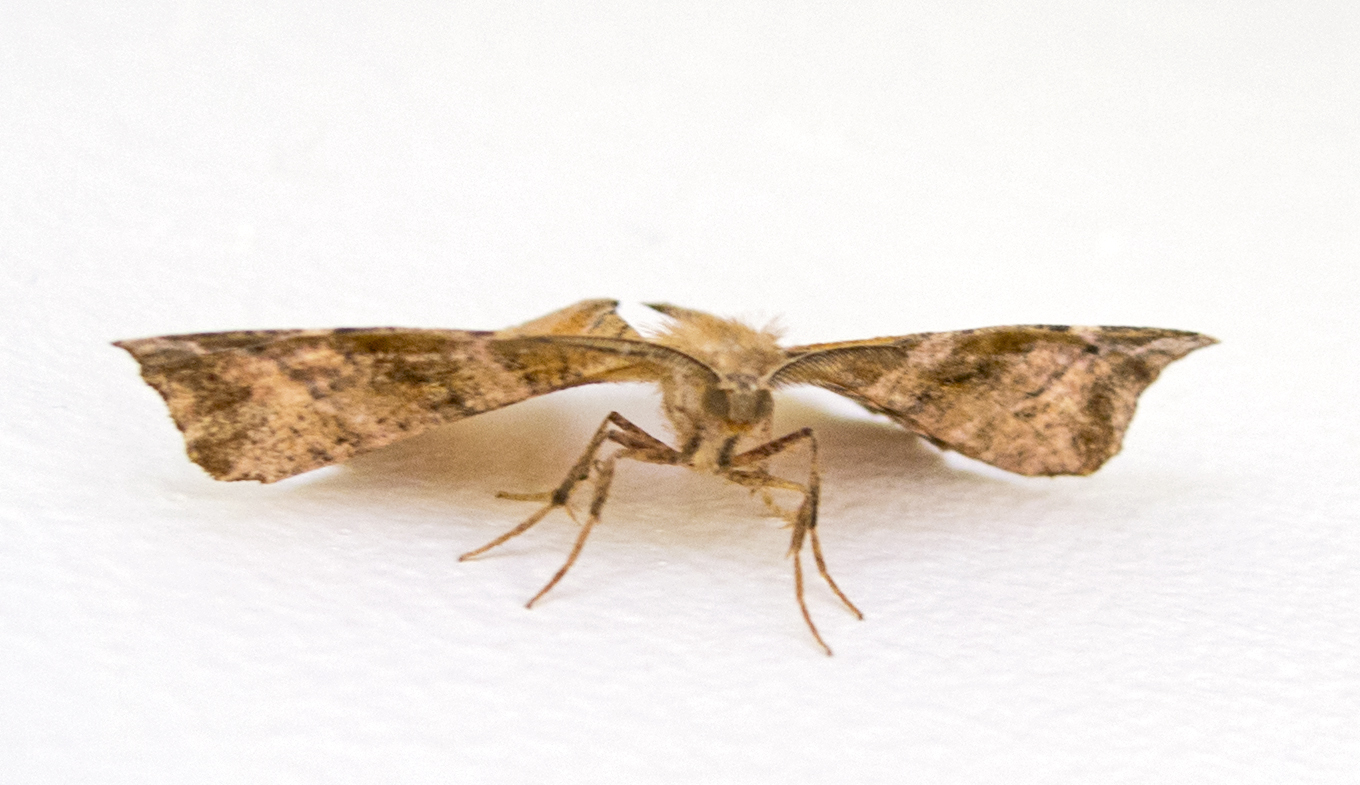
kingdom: Animalia
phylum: Arthropoda
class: Insecta
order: Lepidoptera
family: Geometridae
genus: Apeira
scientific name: Apeira syringaria
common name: Lilac beauty
